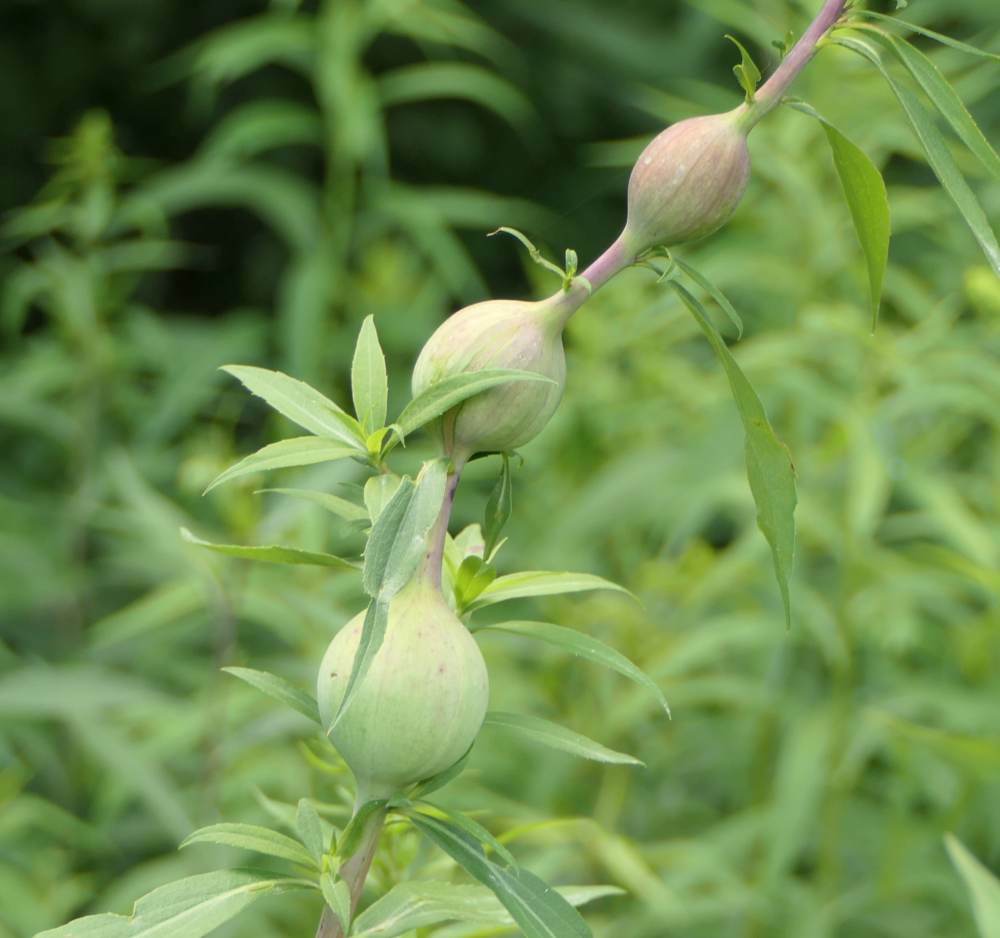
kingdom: Animalia
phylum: Arthropoda
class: Insecta
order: Diptera
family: Tephritidae
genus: Eurosta
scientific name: Eurosta solidaginis
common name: Goldenrod gall fly
